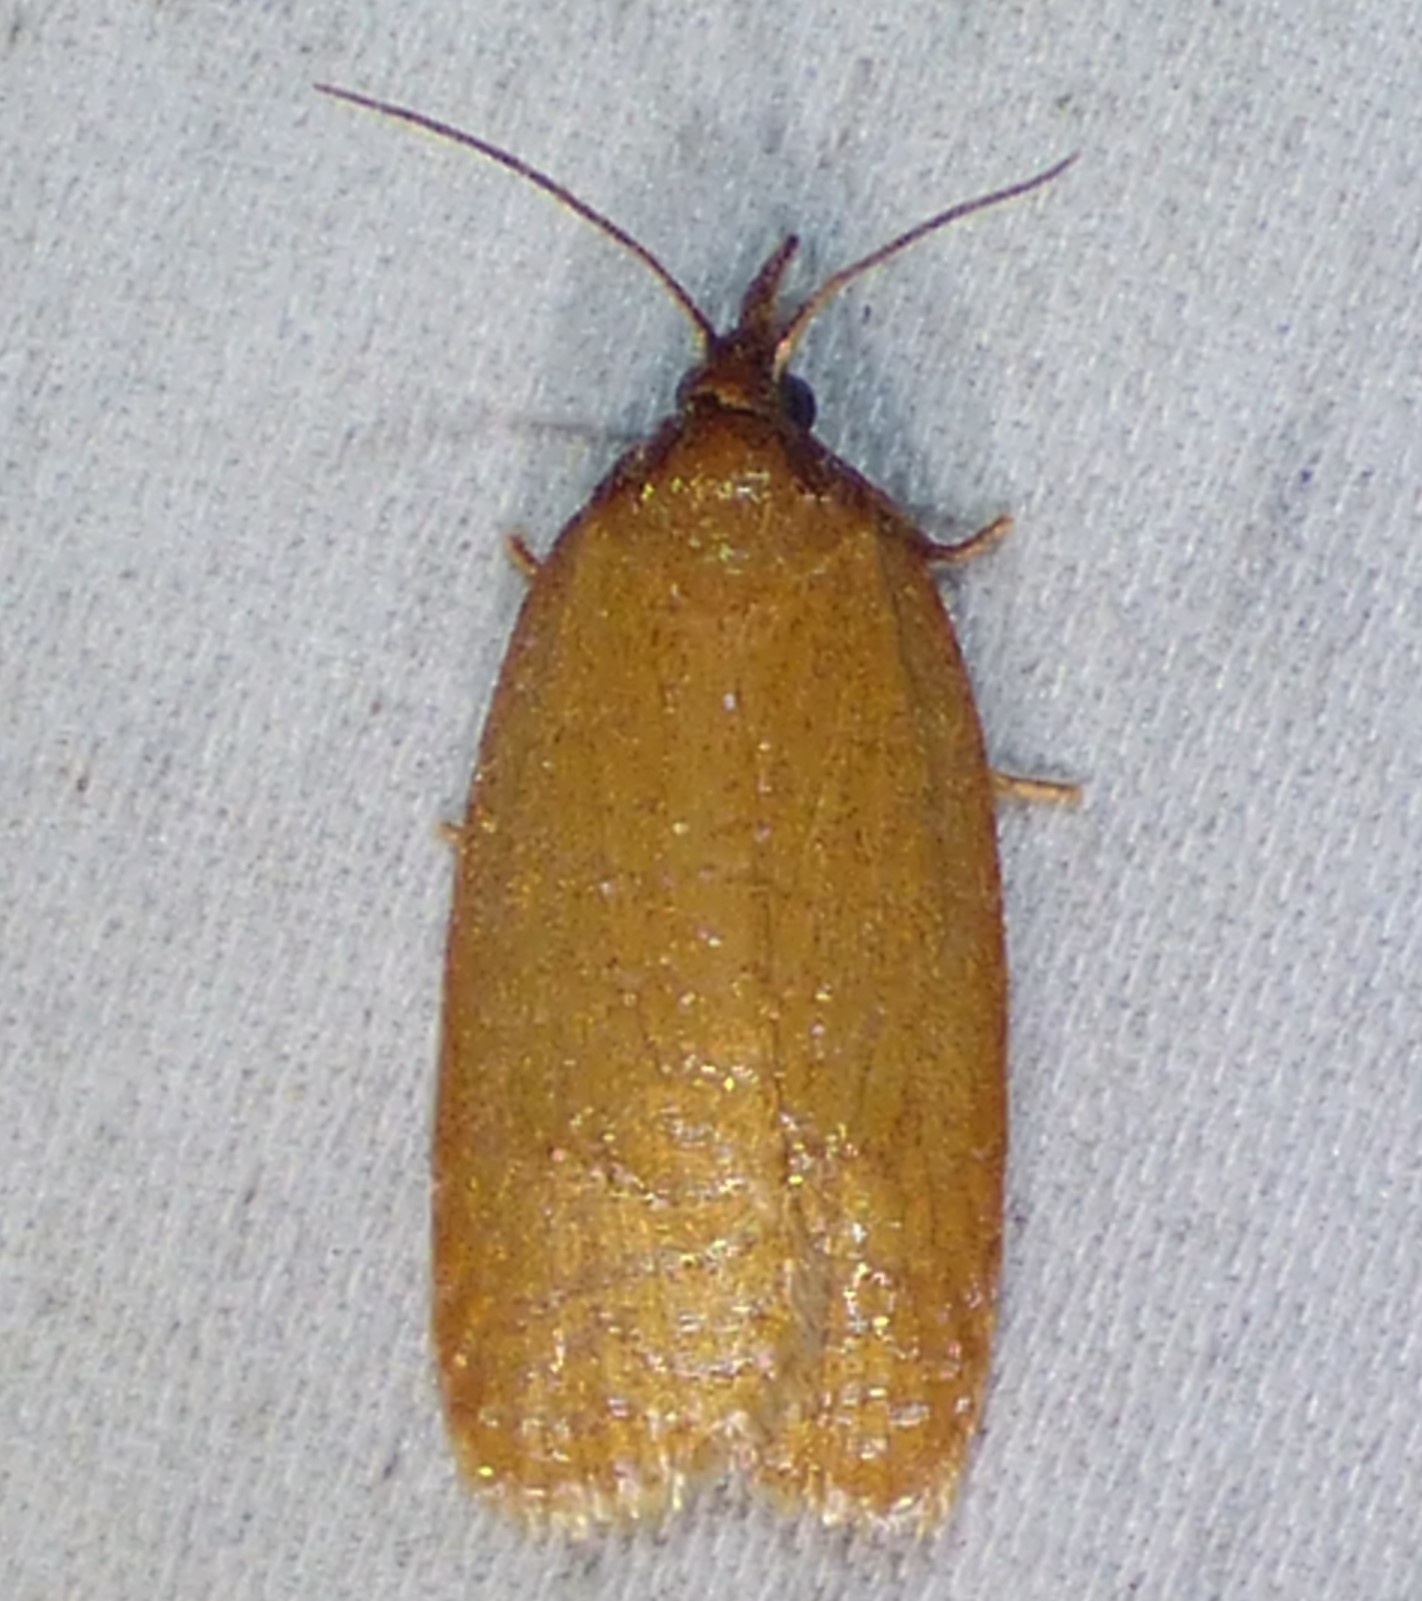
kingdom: Animalia
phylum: Arthropoda
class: Insecta
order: Lepidoptera
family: Tortricidae
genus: Sparganothis
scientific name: Sparganothis distincta
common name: Distinct sparganothis moth
